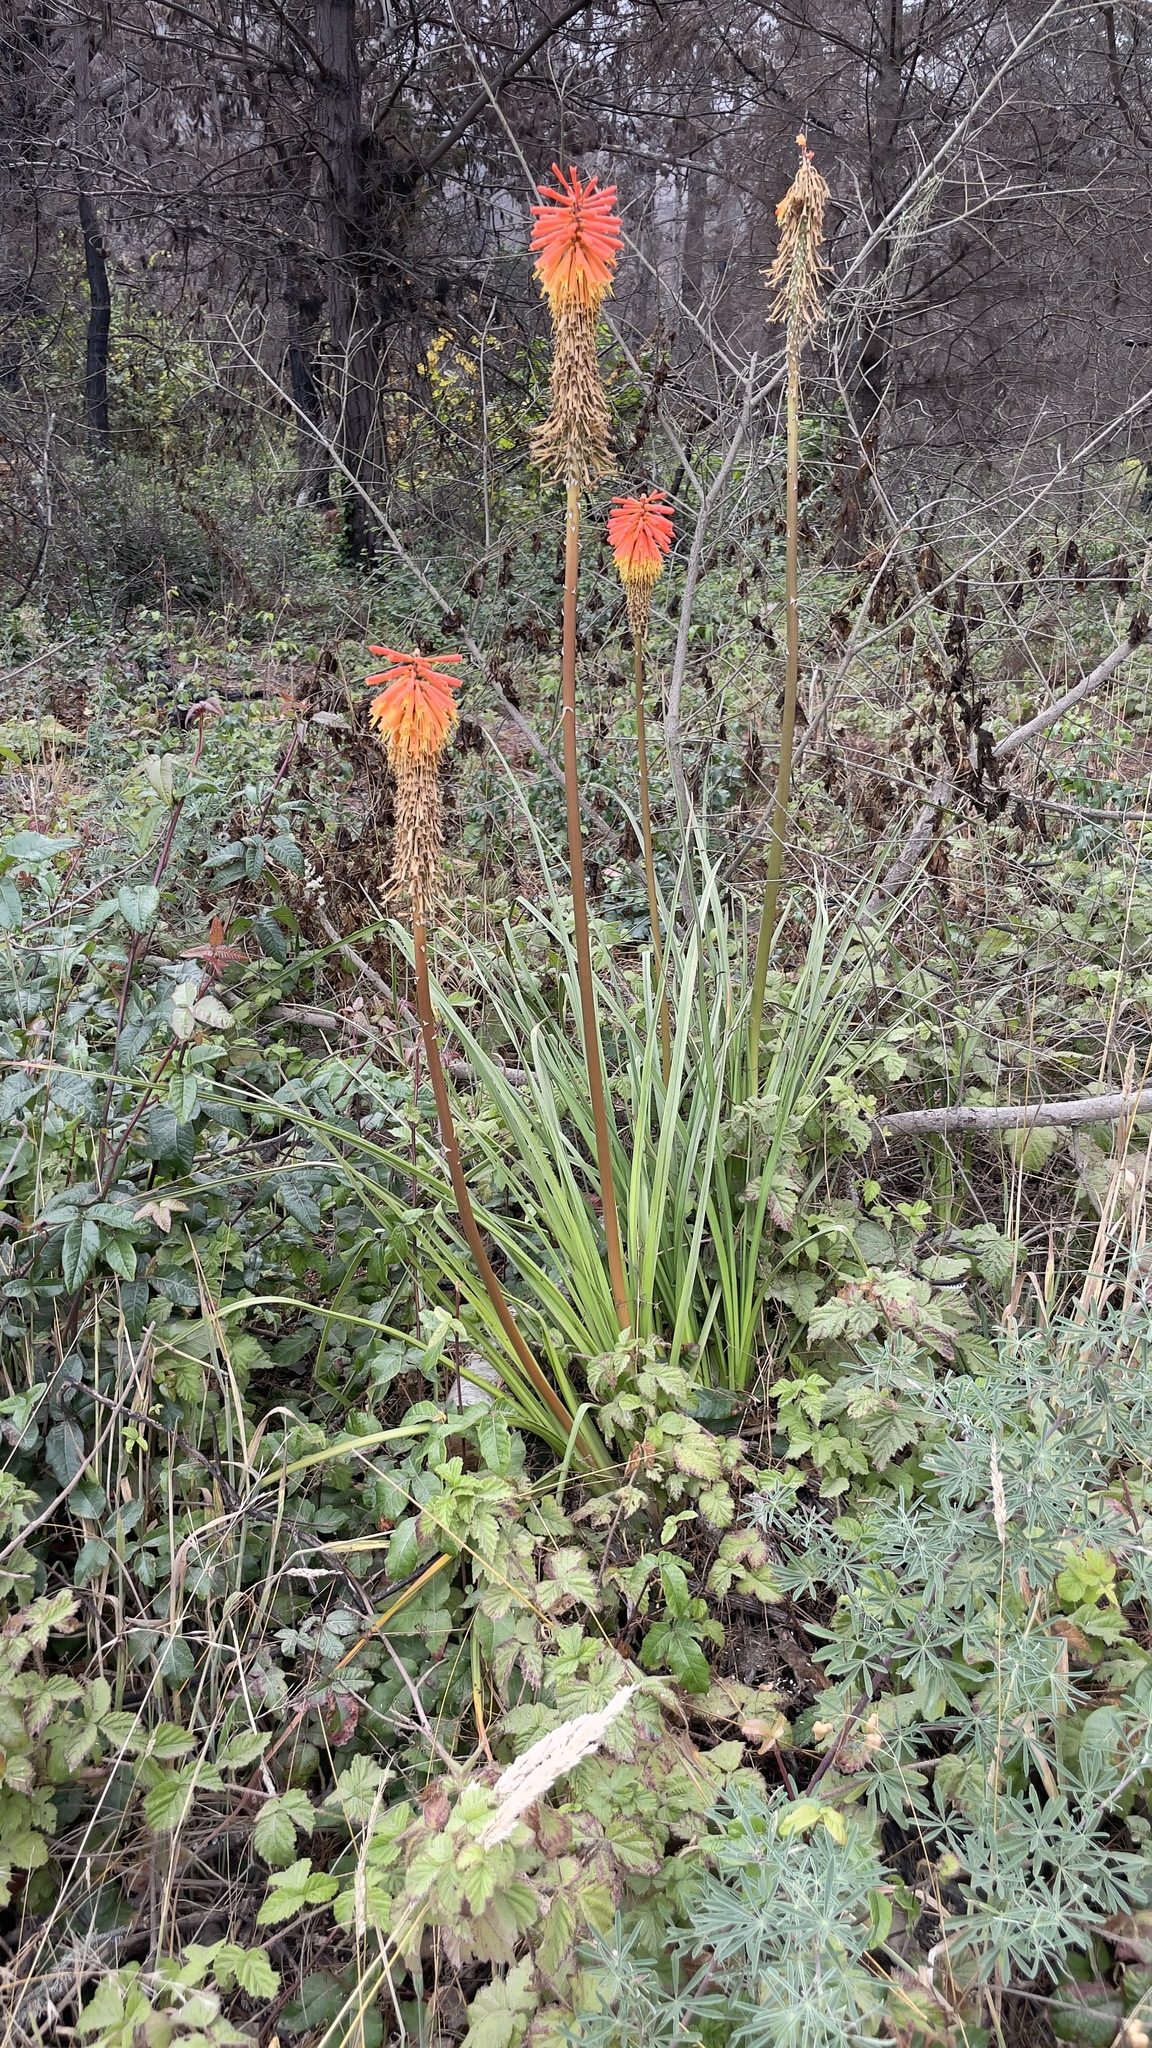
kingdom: Plantae
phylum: Tracheophyta
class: Liliopsida
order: Asparagales
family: Asphodelaceae
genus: Kniphofia
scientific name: Kniphofia uvaria
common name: Red-hot-poker
